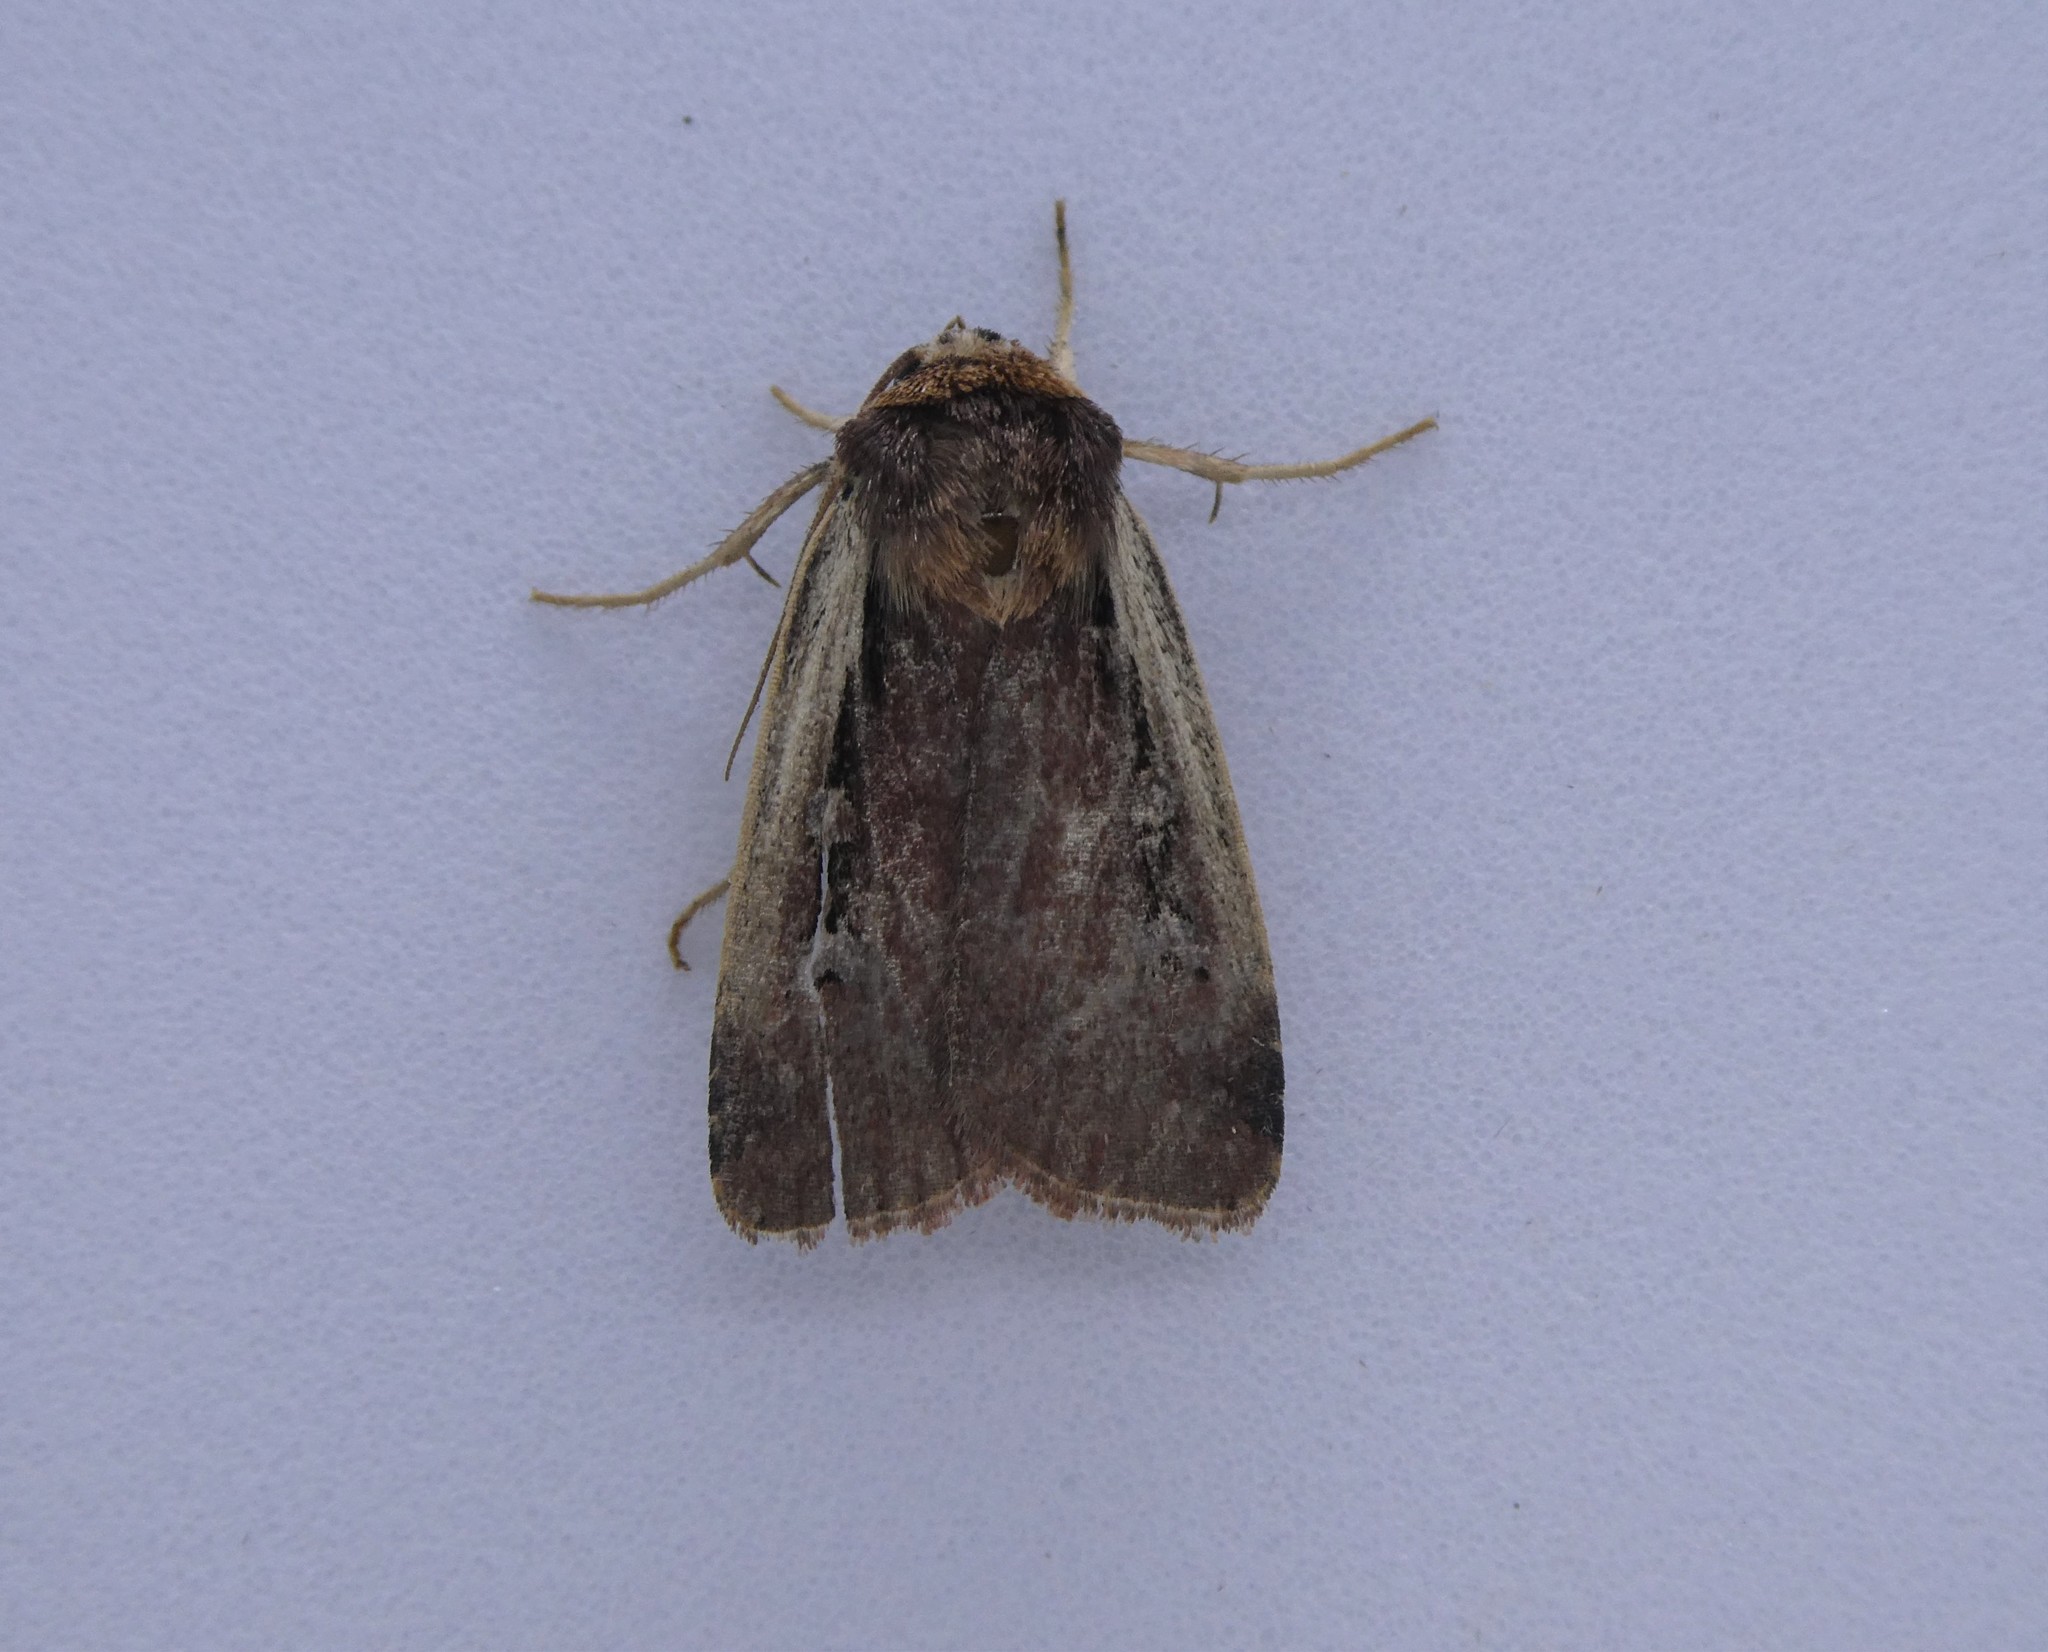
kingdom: Animalia
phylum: Arthropoda
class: Insecta
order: Lepidoptera
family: Noctuidae
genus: Ochropleura
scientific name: Ochropleura implecta
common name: Flame-shouldered dart
